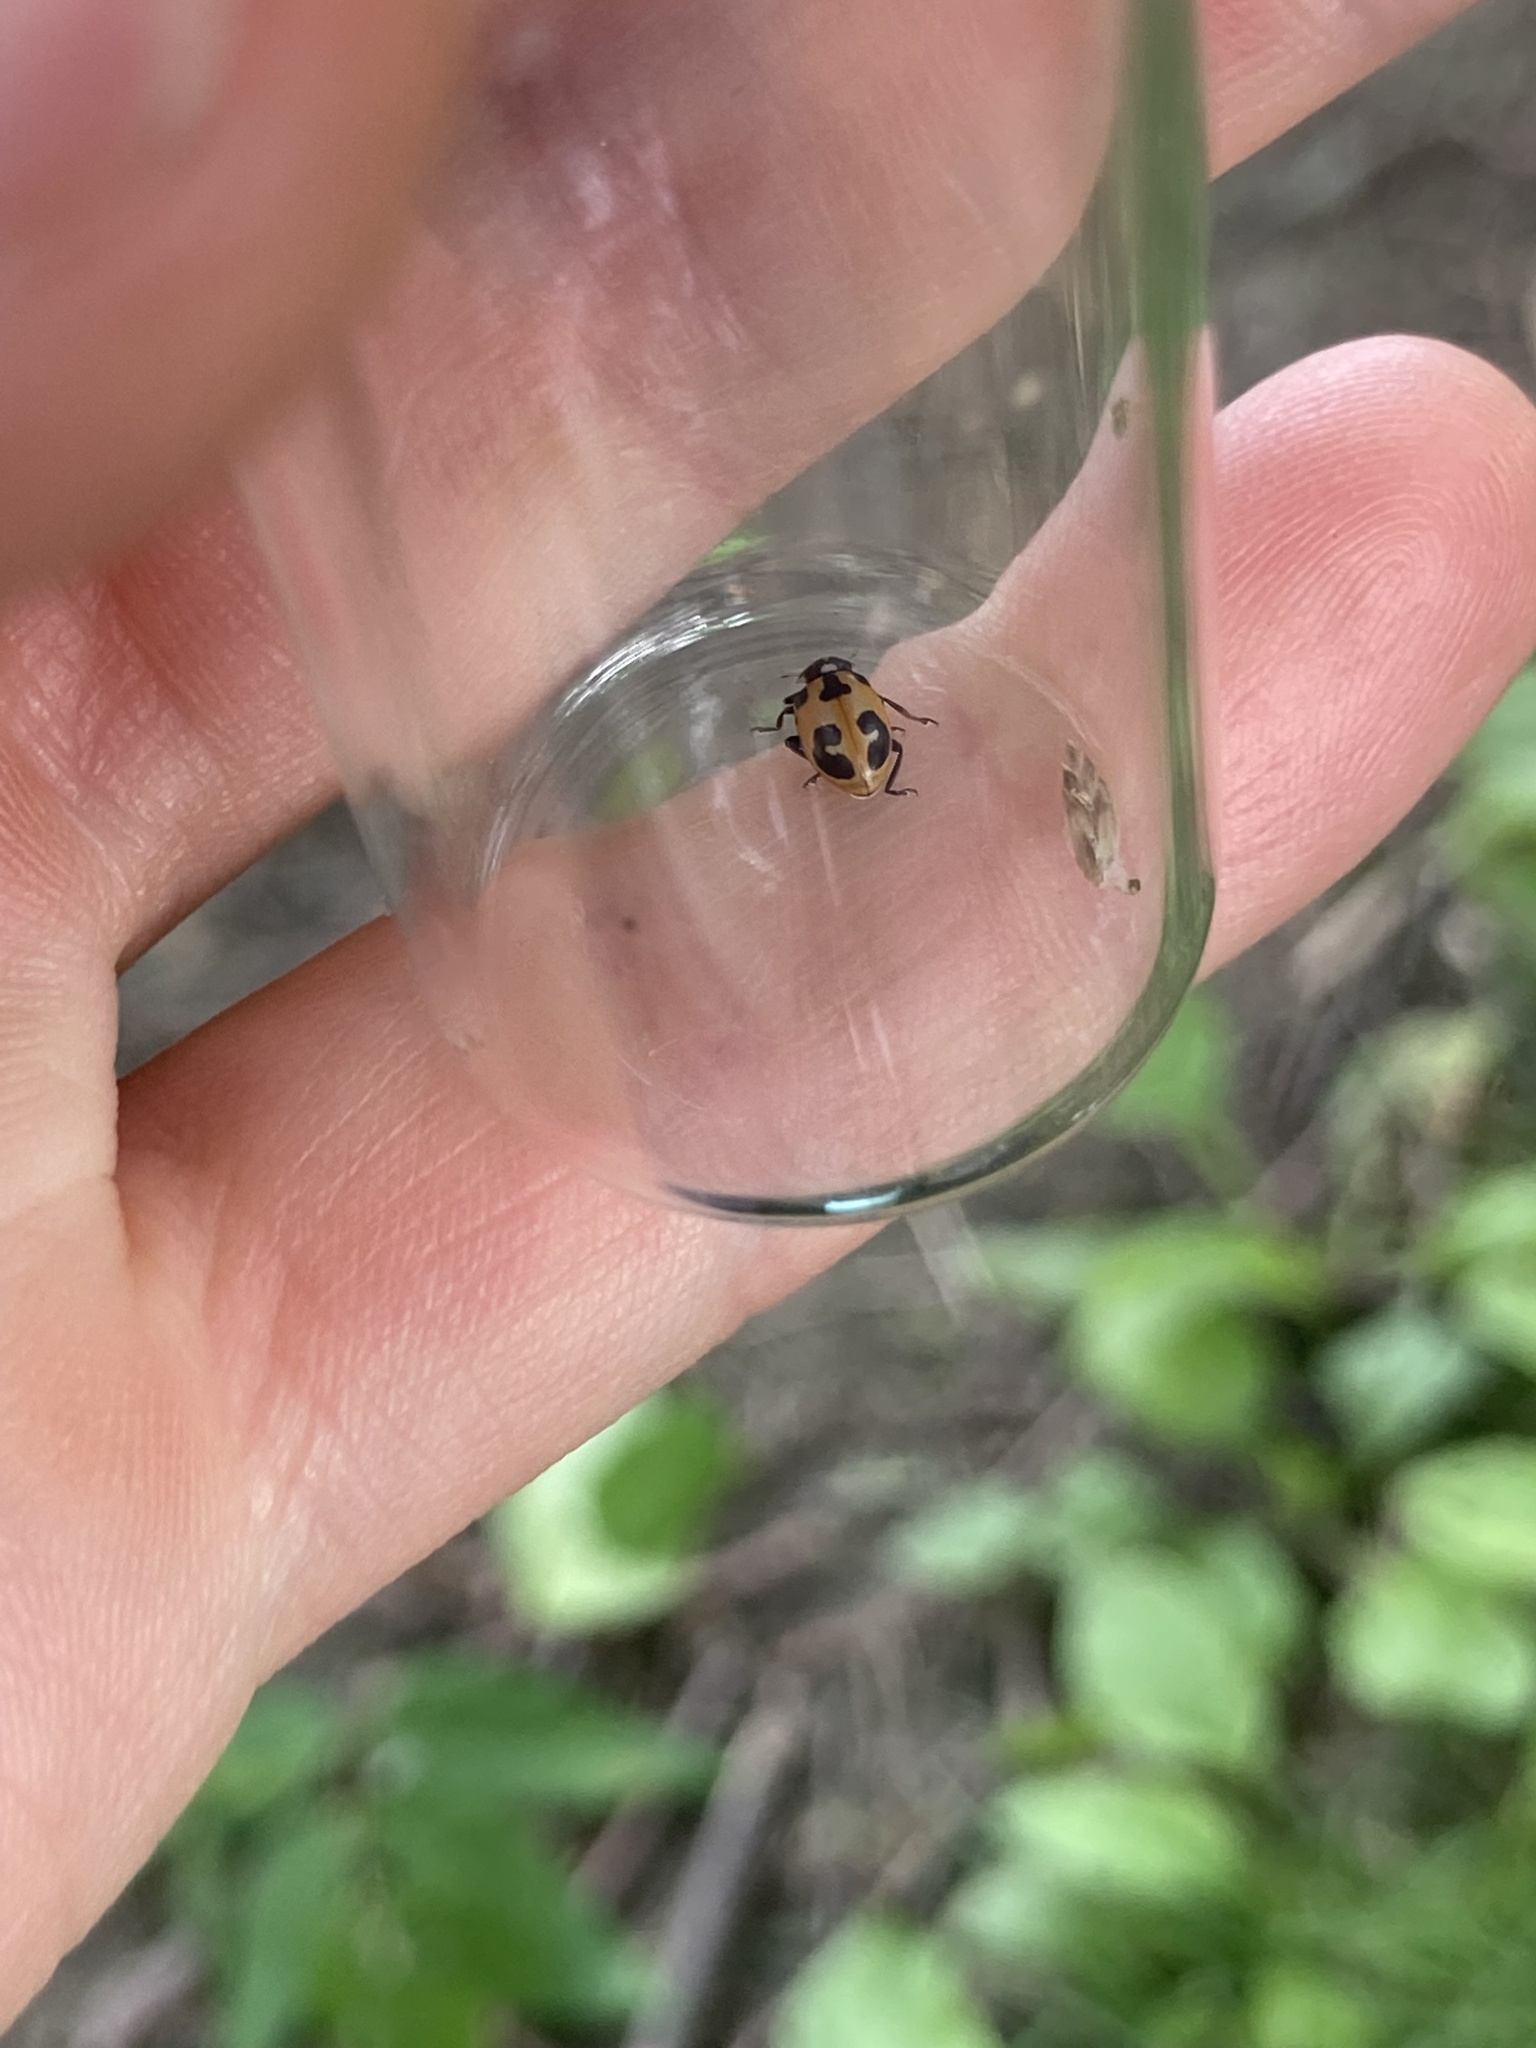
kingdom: Animalia
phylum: Arthropoda
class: Insecta
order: Coleoptera
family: Coccinellidae
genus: Hippodamia
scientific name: Hippodamia parenthesis
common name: Parenthesis lady beetle
